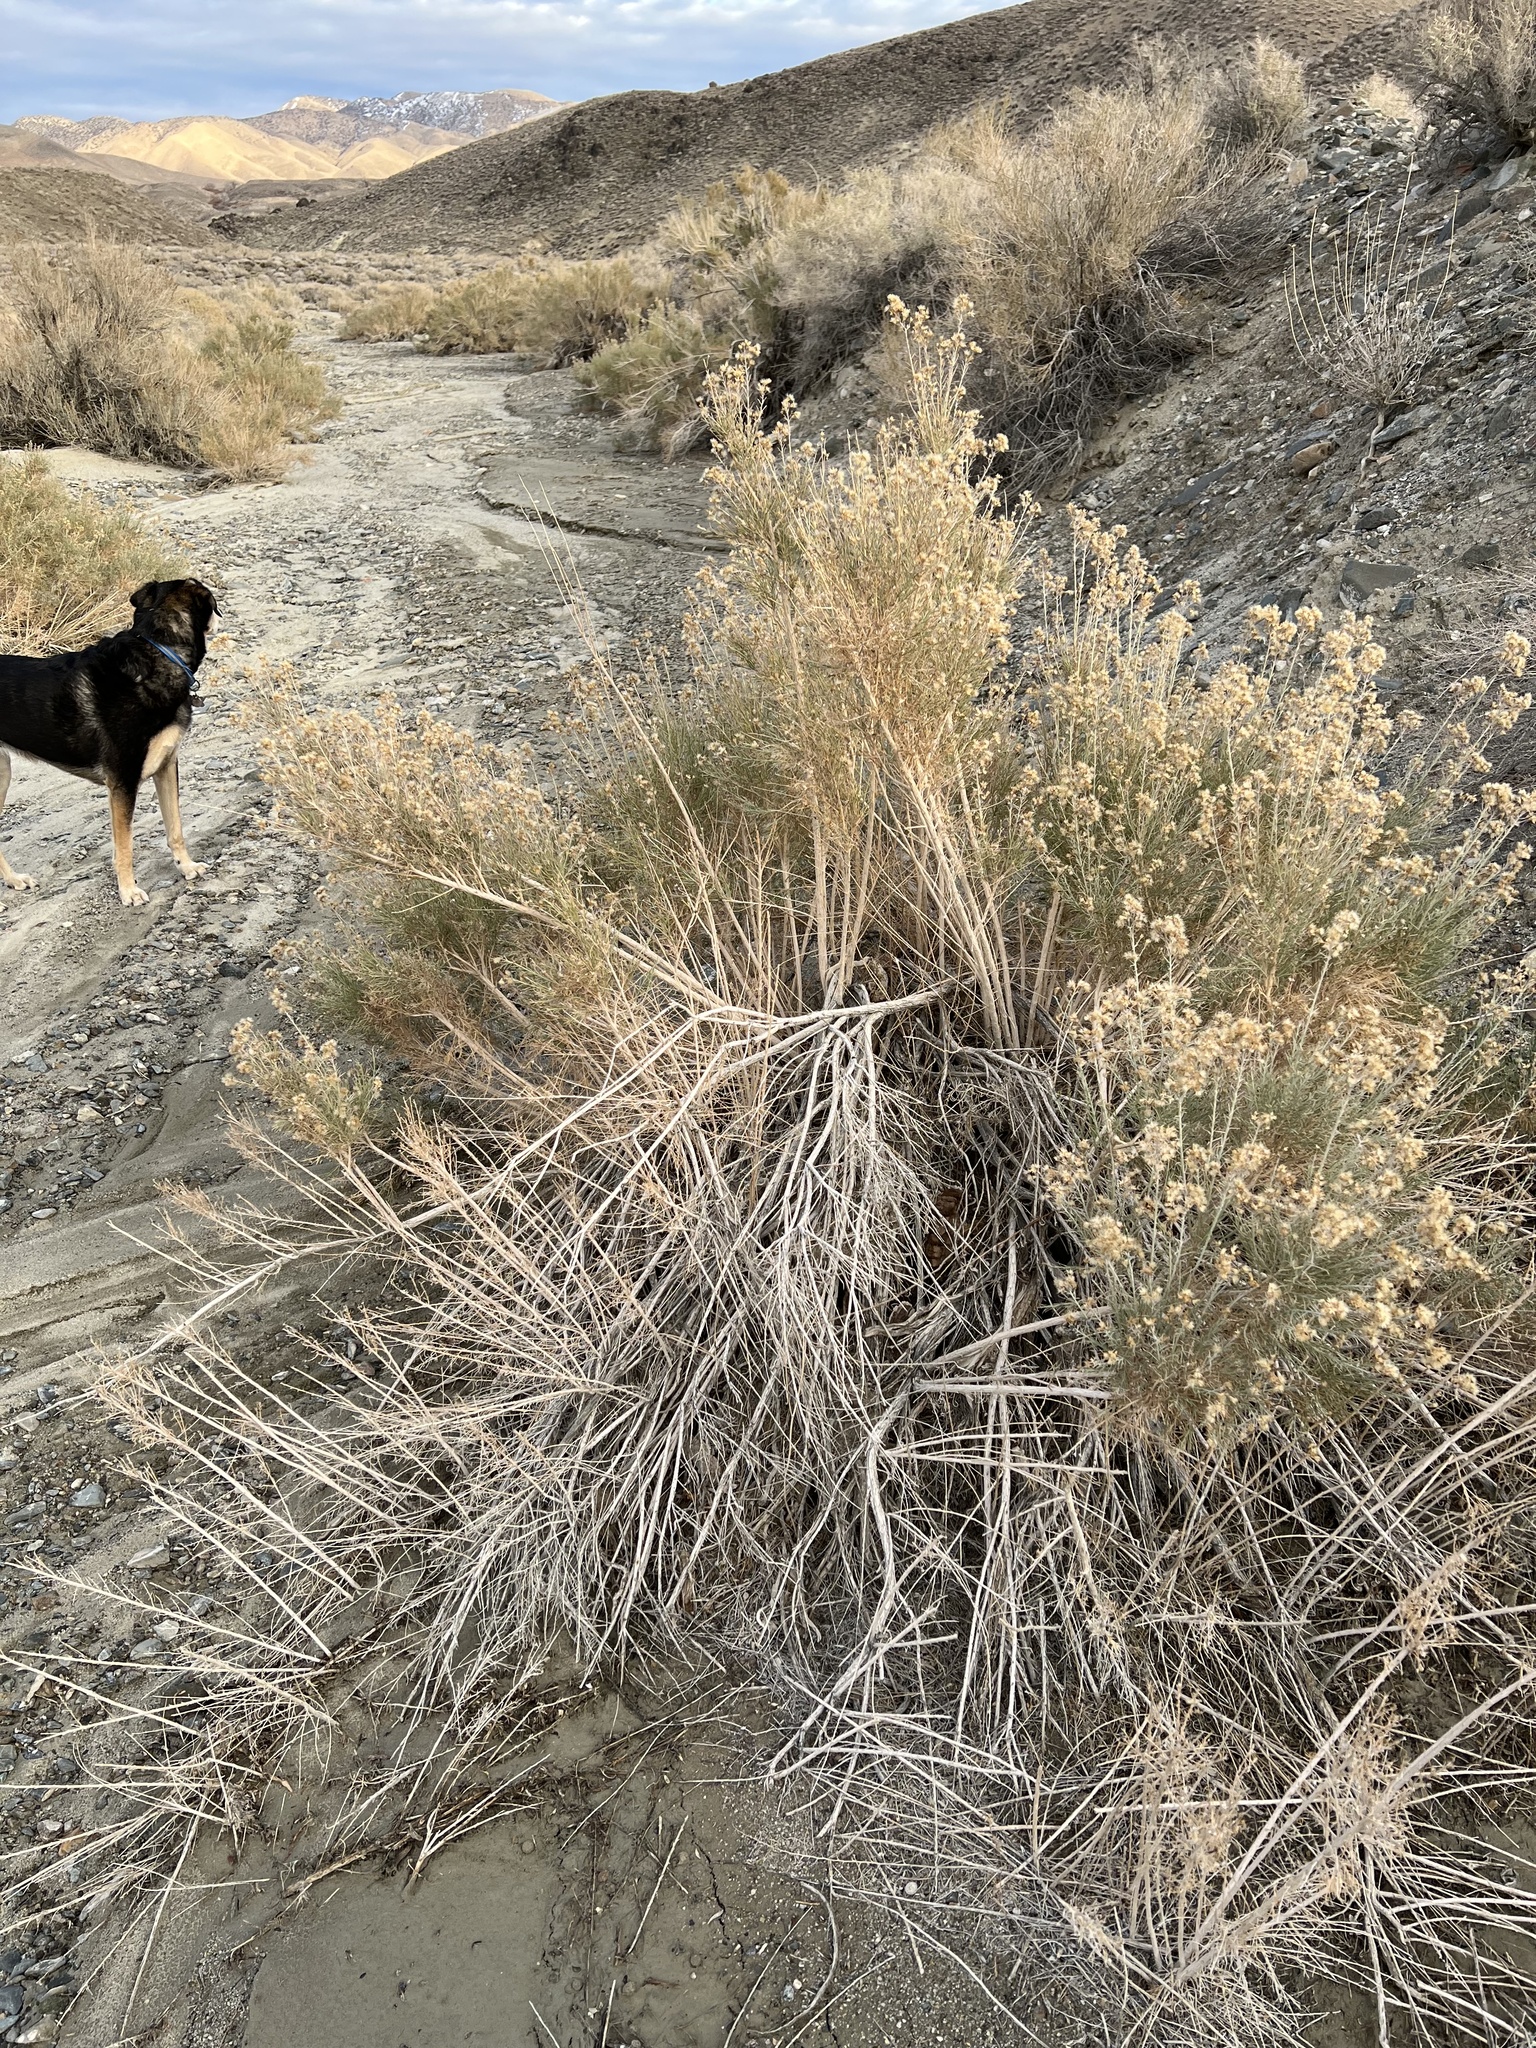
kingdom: Plantae
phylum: Tracheophyta
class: Magnoliopsida
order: Asterales
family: Asteraceae
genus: Ericameria
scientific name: Ericameria paniculata
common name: Punctate rabbitbrush
